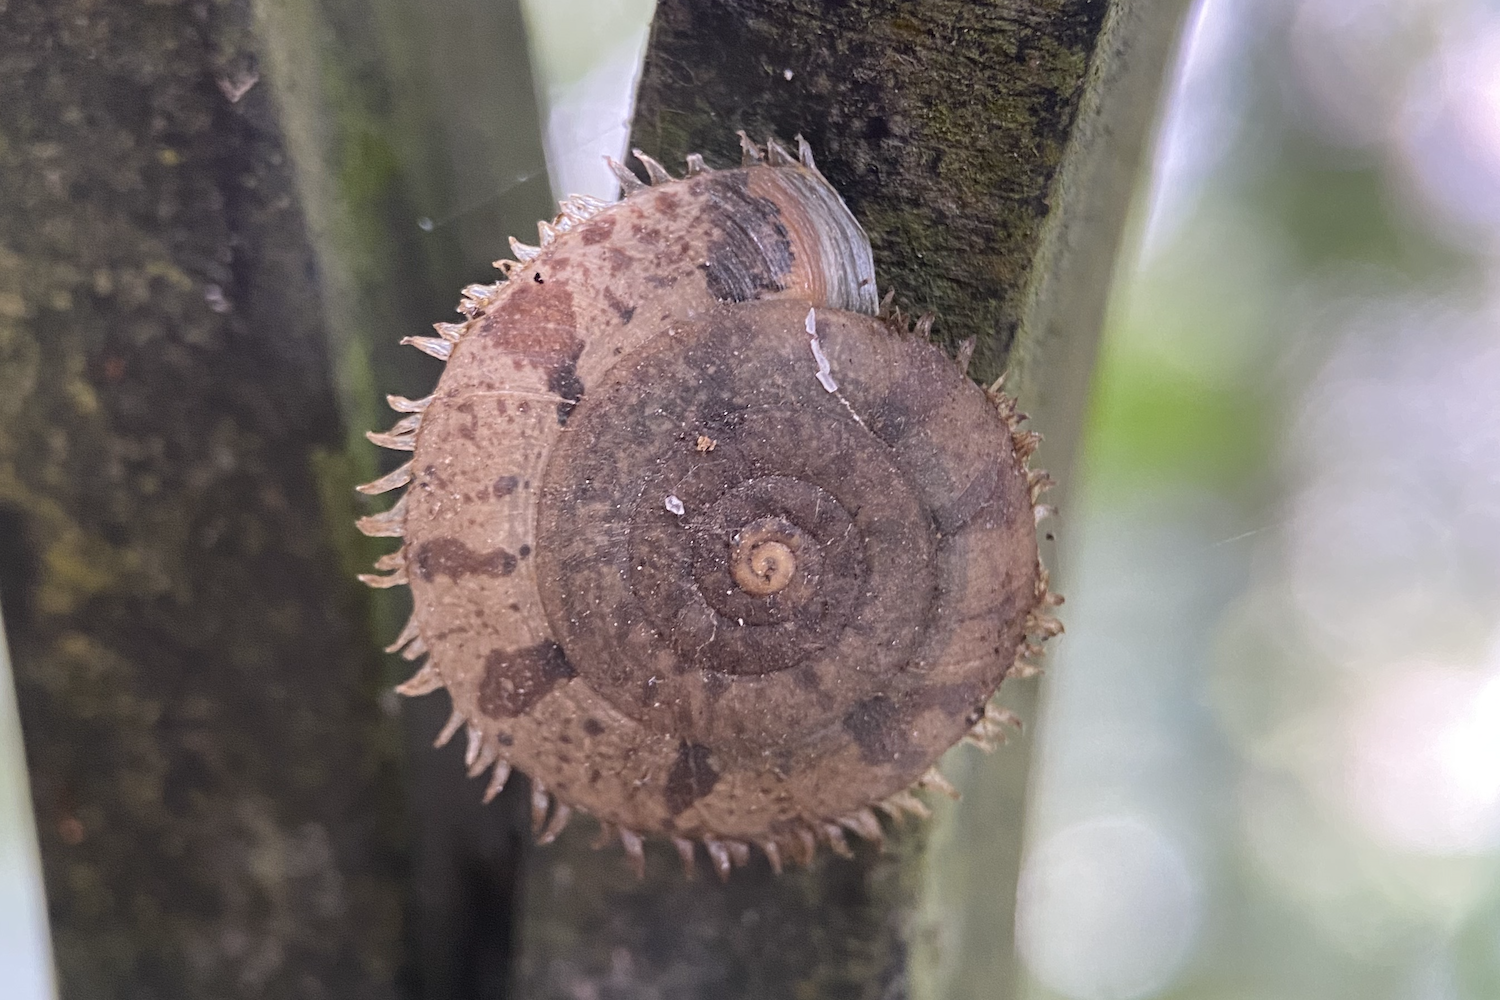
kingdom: Animalia
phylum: Mollusca
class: Gastropoda
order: Stylommatophora
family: Camaenidae
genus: Plectotropis
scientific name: Plectotropis gerlachi
